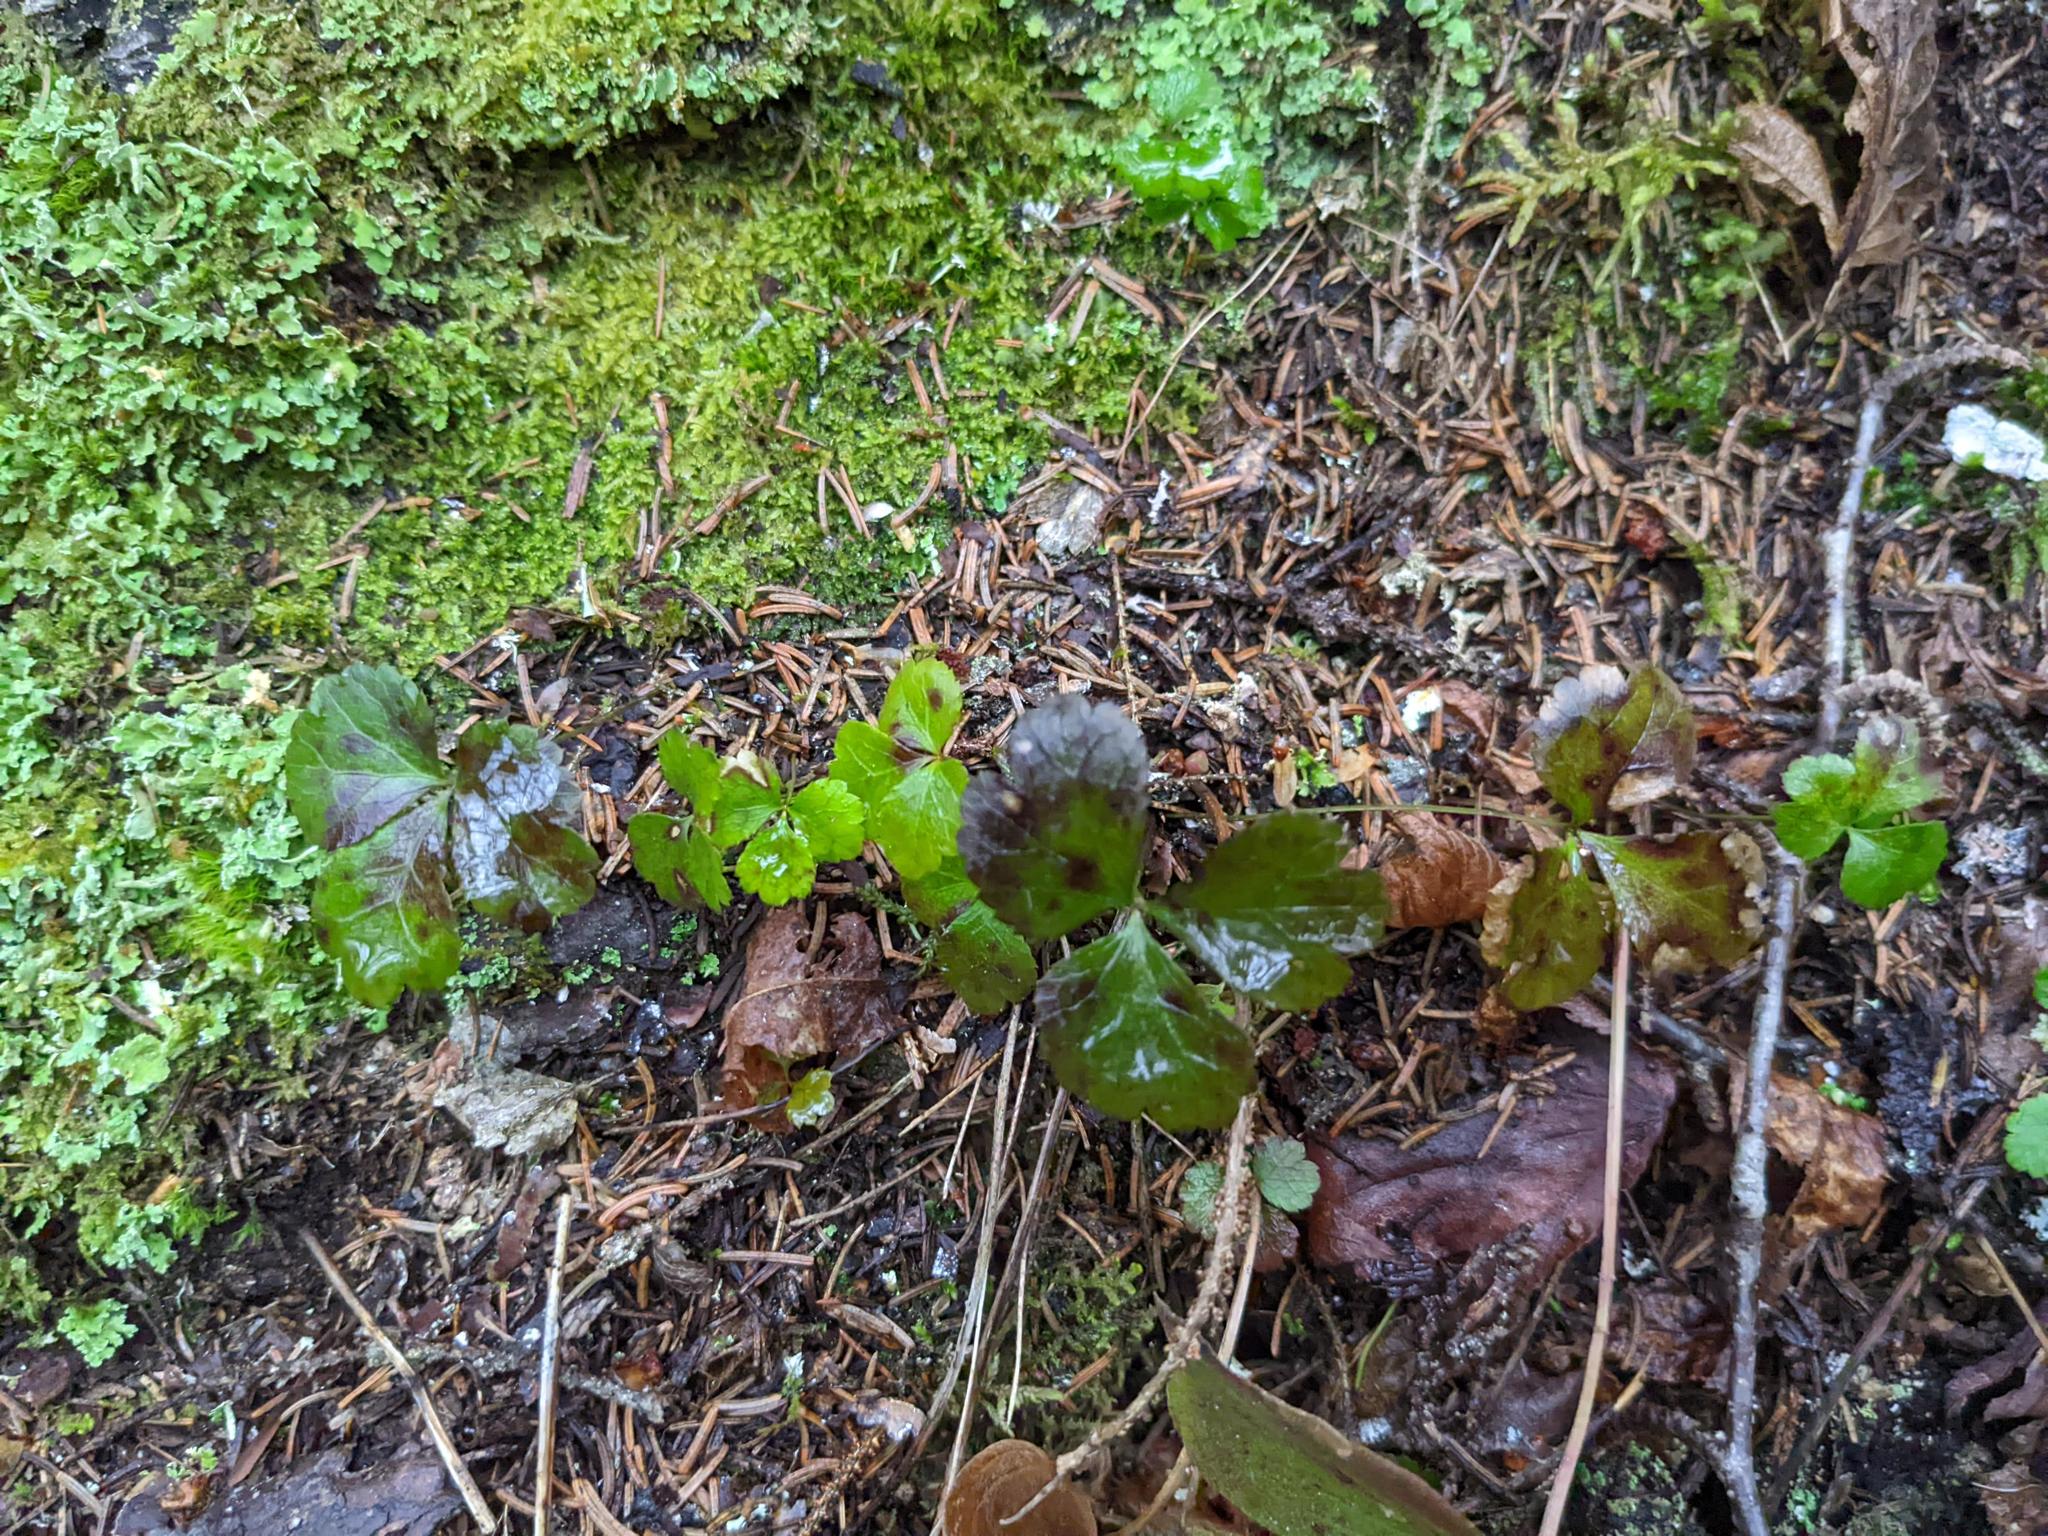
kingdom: Plantae
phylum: Tracheophyta
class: Magnoliopsida
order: Ranunculales
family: Ranunculaceae
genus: Coptis
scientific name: Coptis trifolia
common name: Canker-root
